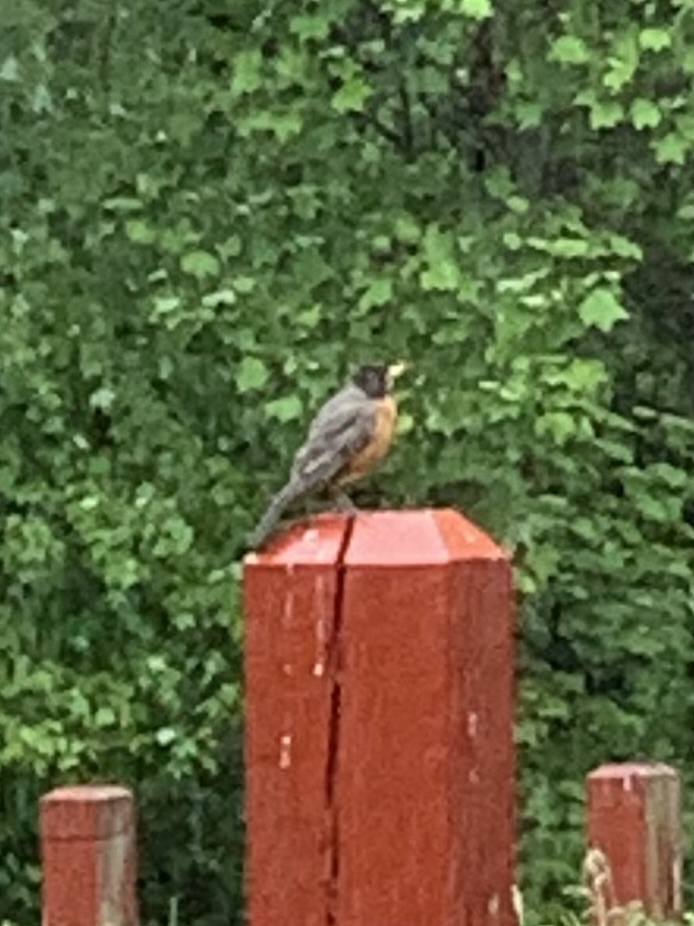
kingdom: Animalia
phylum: Chordata
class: Aves
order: Passeriformes
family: Turdidae
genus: Turdus
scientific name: Turdus migratorius
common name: American robin
